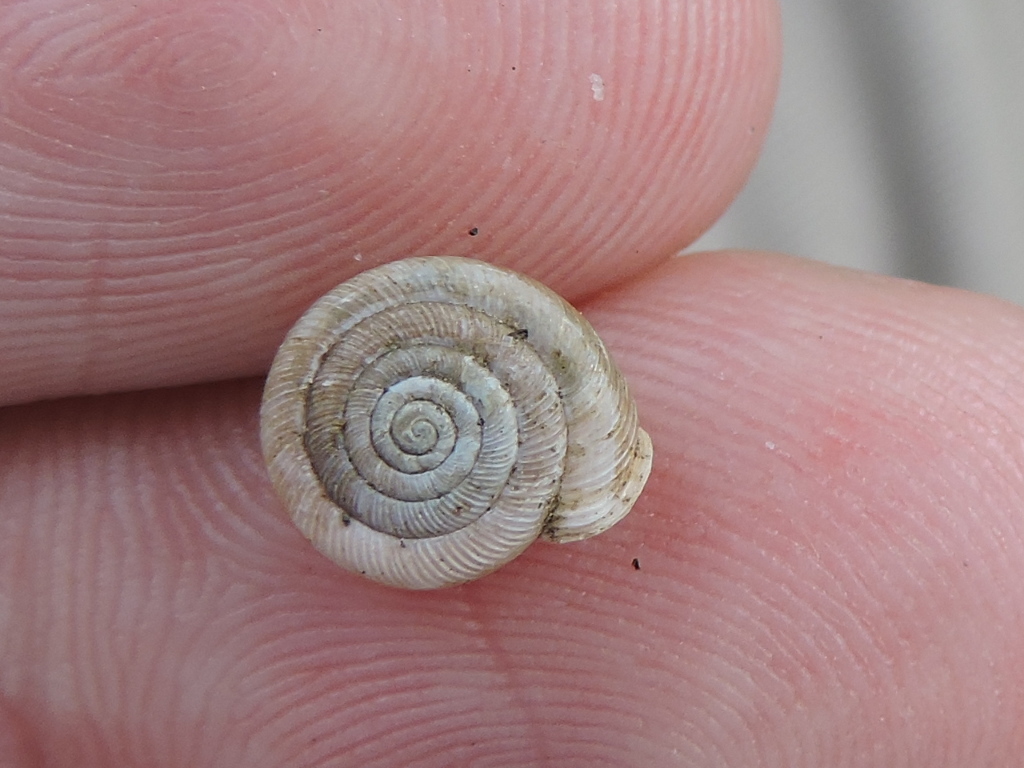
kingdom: Animalia
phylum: Mollusca
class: Gastropoda
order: Stylommatophora
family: Polygyridae
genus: Polygyra
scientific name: Polygyra cereolus
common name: Southern flatcone snail
